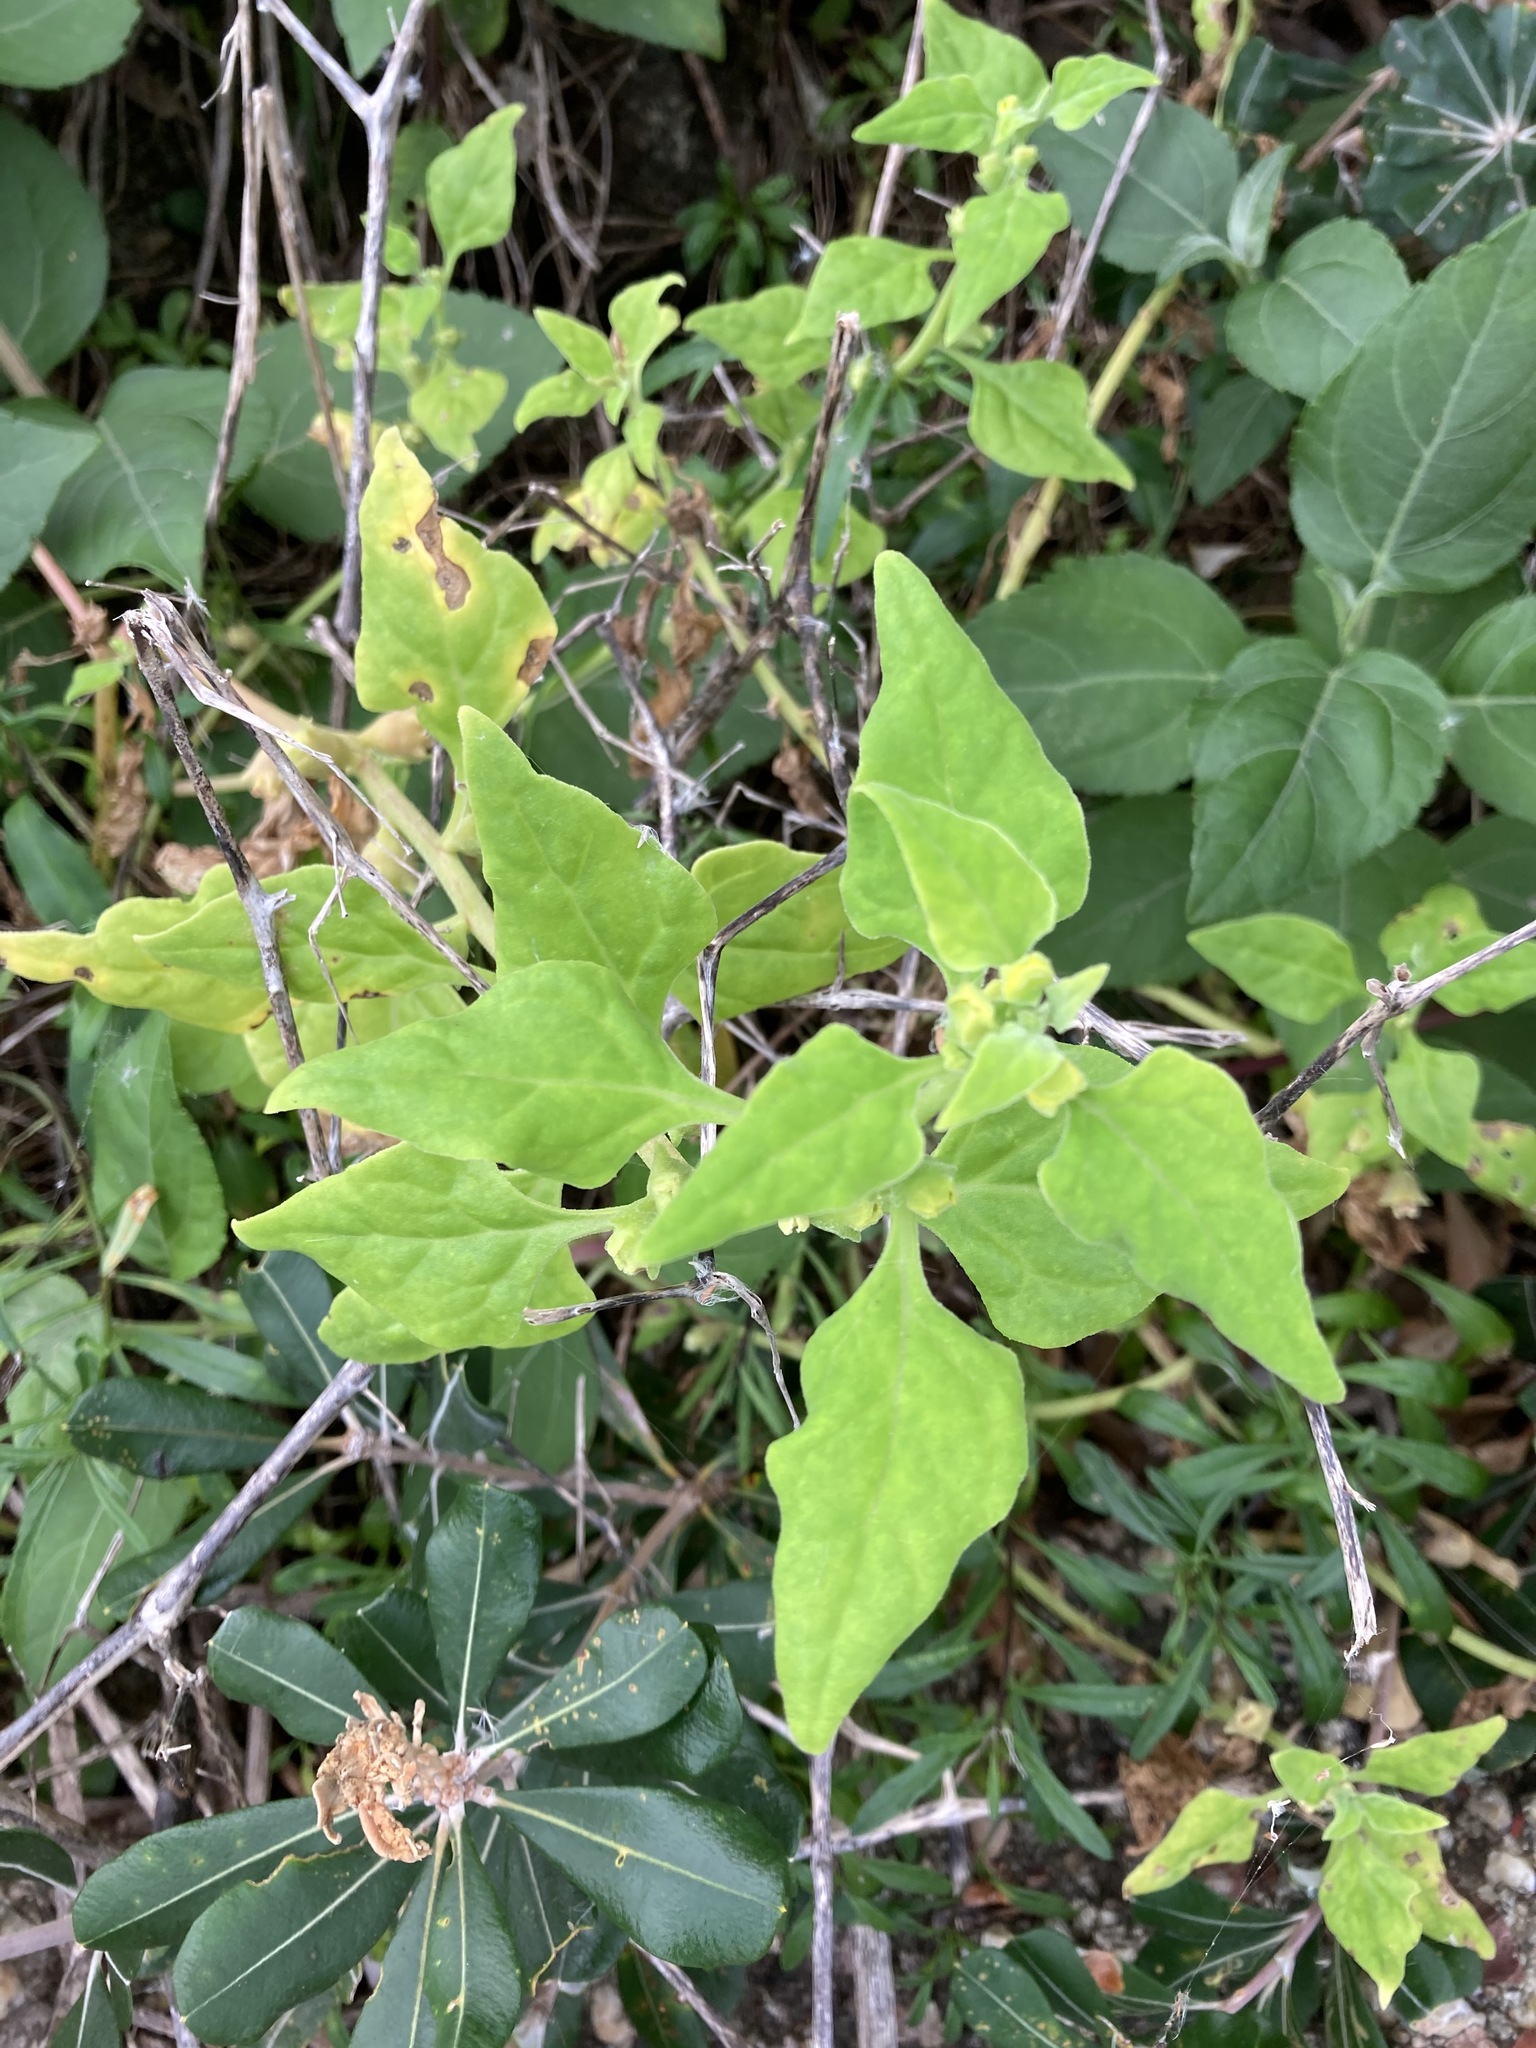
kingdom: Plantae
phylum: Tracheophyta
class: Magnoliopsida
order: Caryophyllales
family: Aizoaceae
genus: Tetragonia
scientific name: Tetragonia tetragonoides
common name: New zealand-spinach
